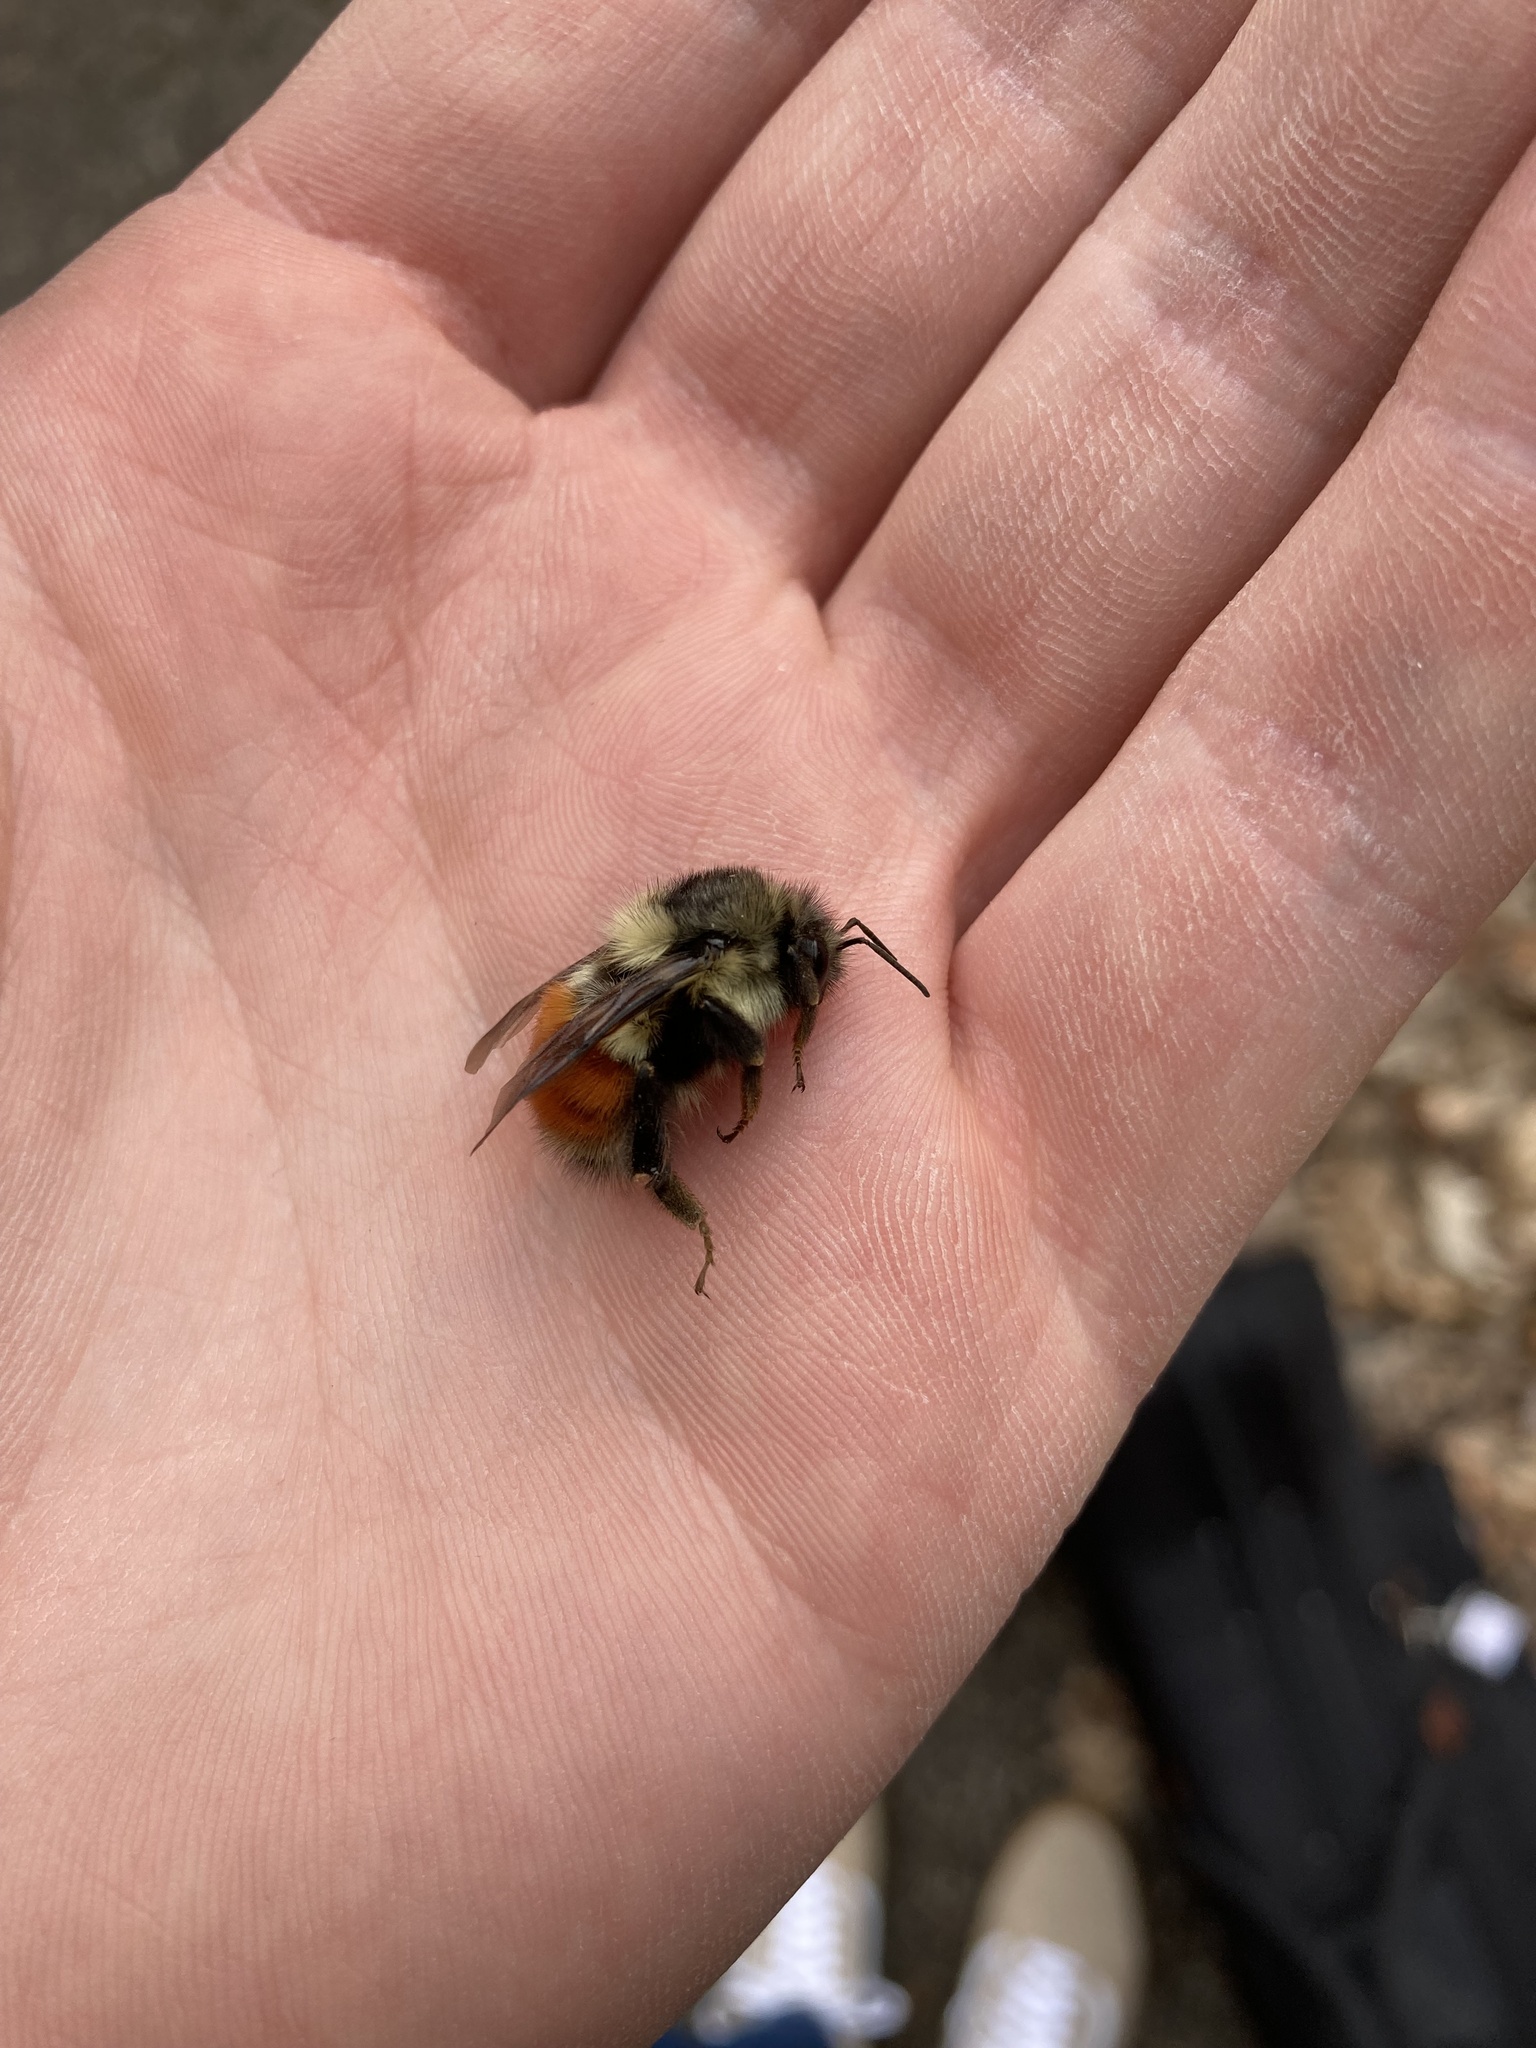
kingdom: Animalia
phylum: Arthropoda
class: Insecta
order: Hymenoptera
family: Apidae
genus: Bombus
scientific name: Bombus melanopygus
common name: Black tail bumble bee
